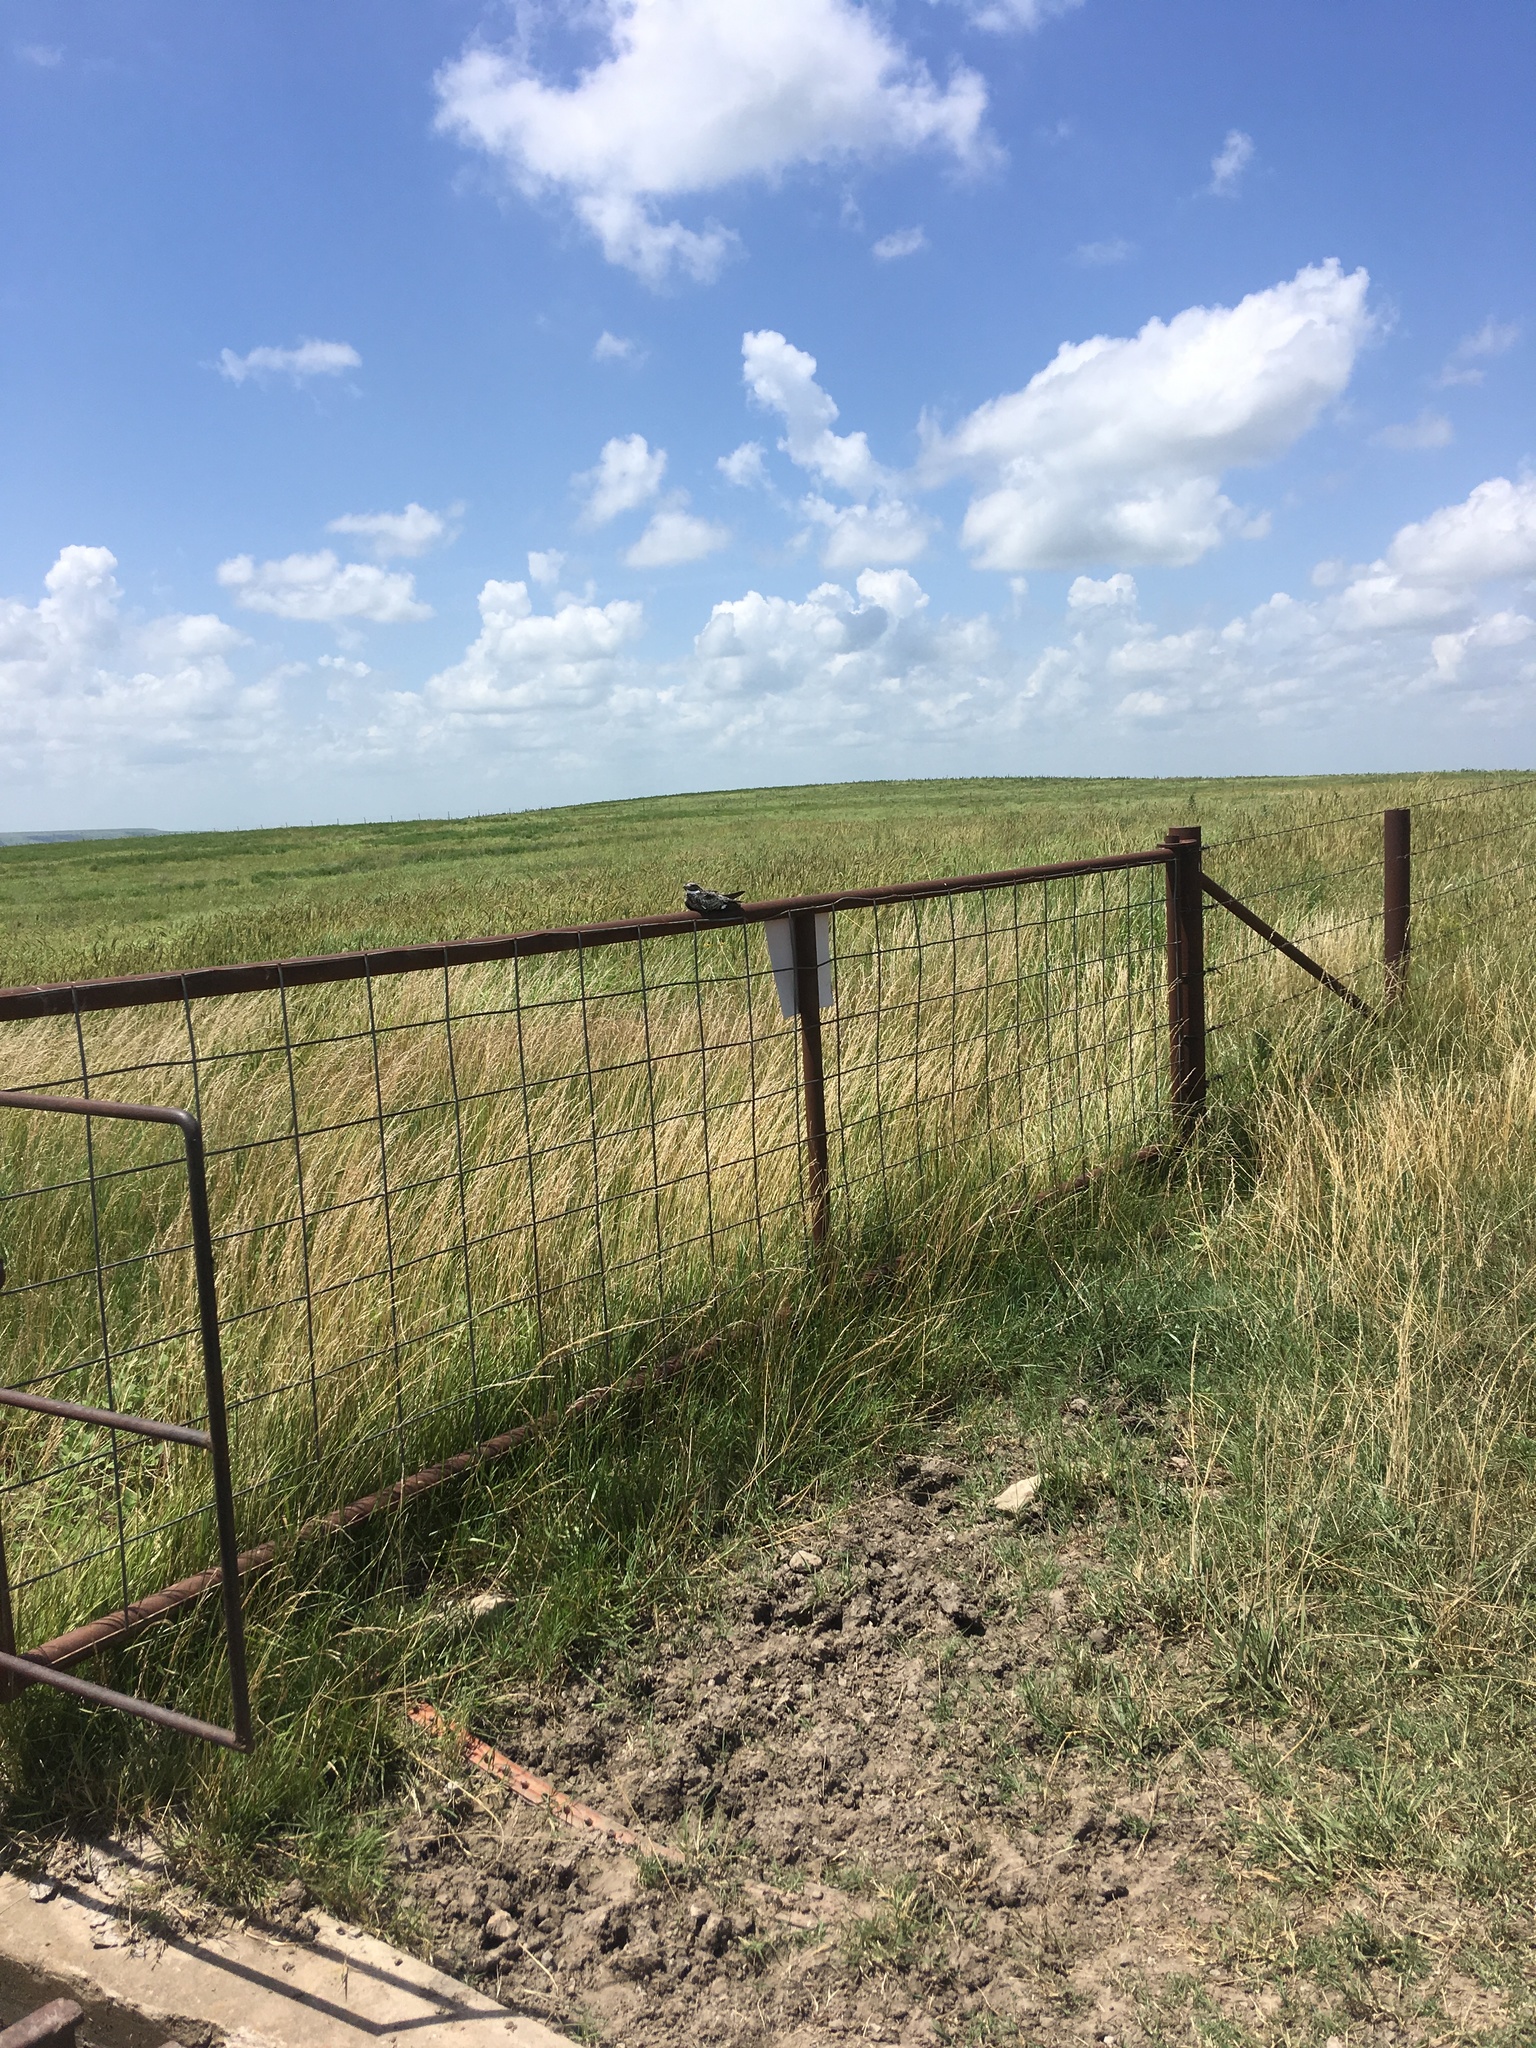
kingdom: Animalia
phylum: Chordata
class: Aves
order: Caprimulgiformes
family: Caprimulgidae
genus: Chordeiles
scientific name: Chordeiles minor
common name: Common nighthawk
